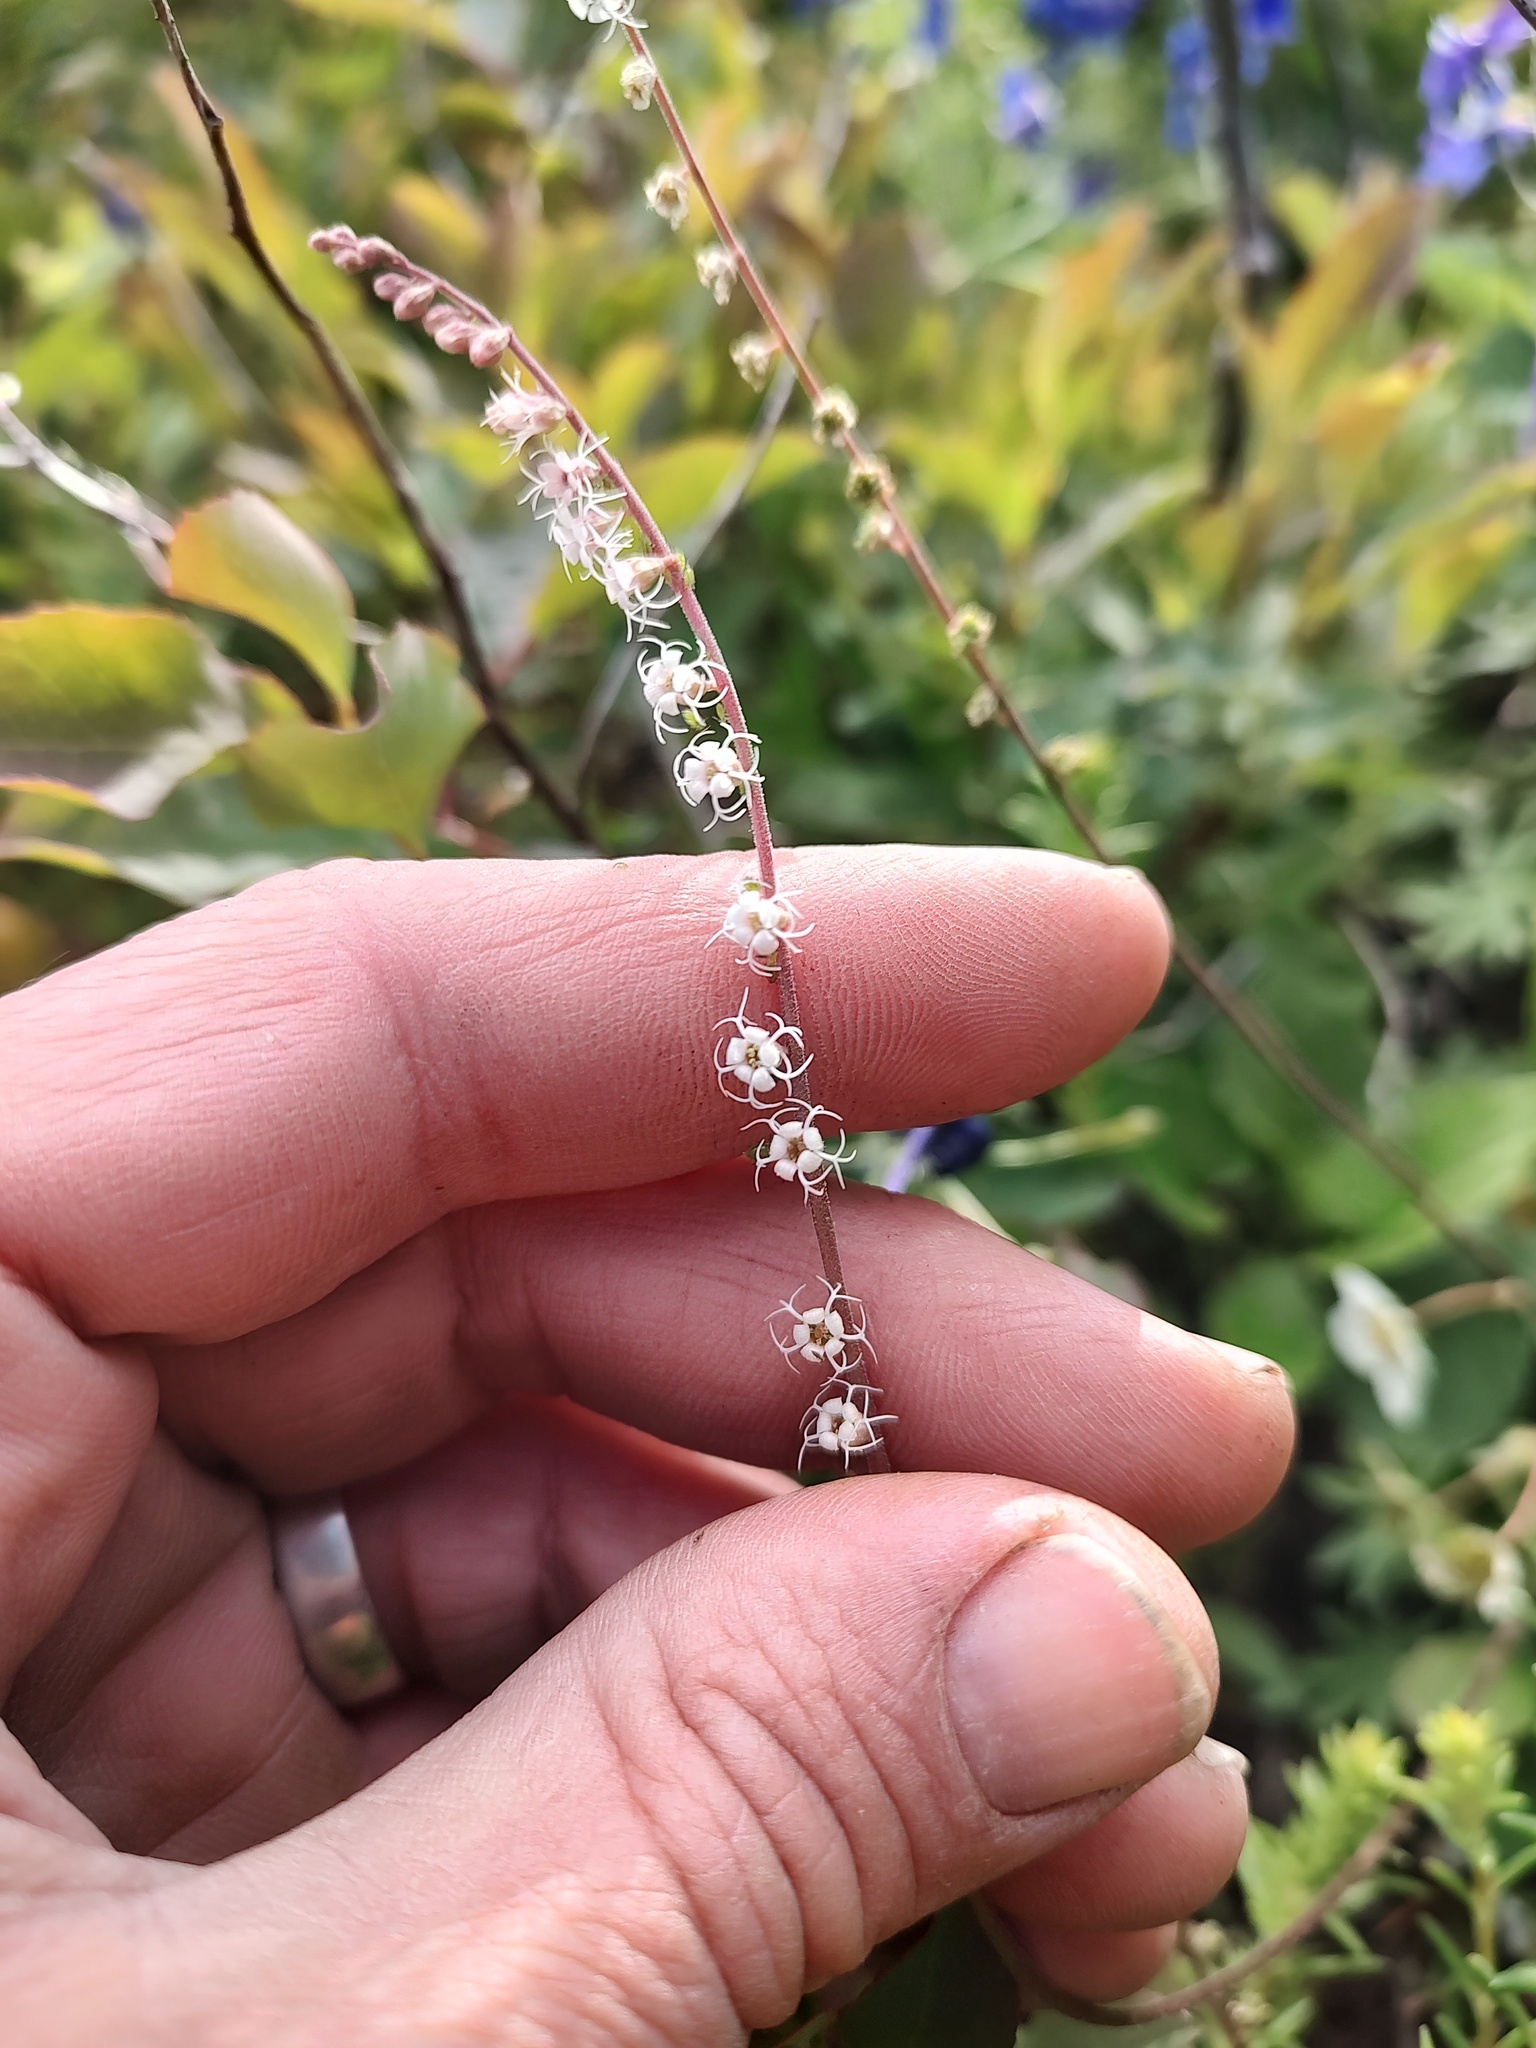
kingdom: Plantae
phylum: Tracheophyta
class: Magnoliopsida
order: Saxifragales
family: Saxifragaceae
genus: Ozomelis
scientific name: Ozomelis stauropetala
